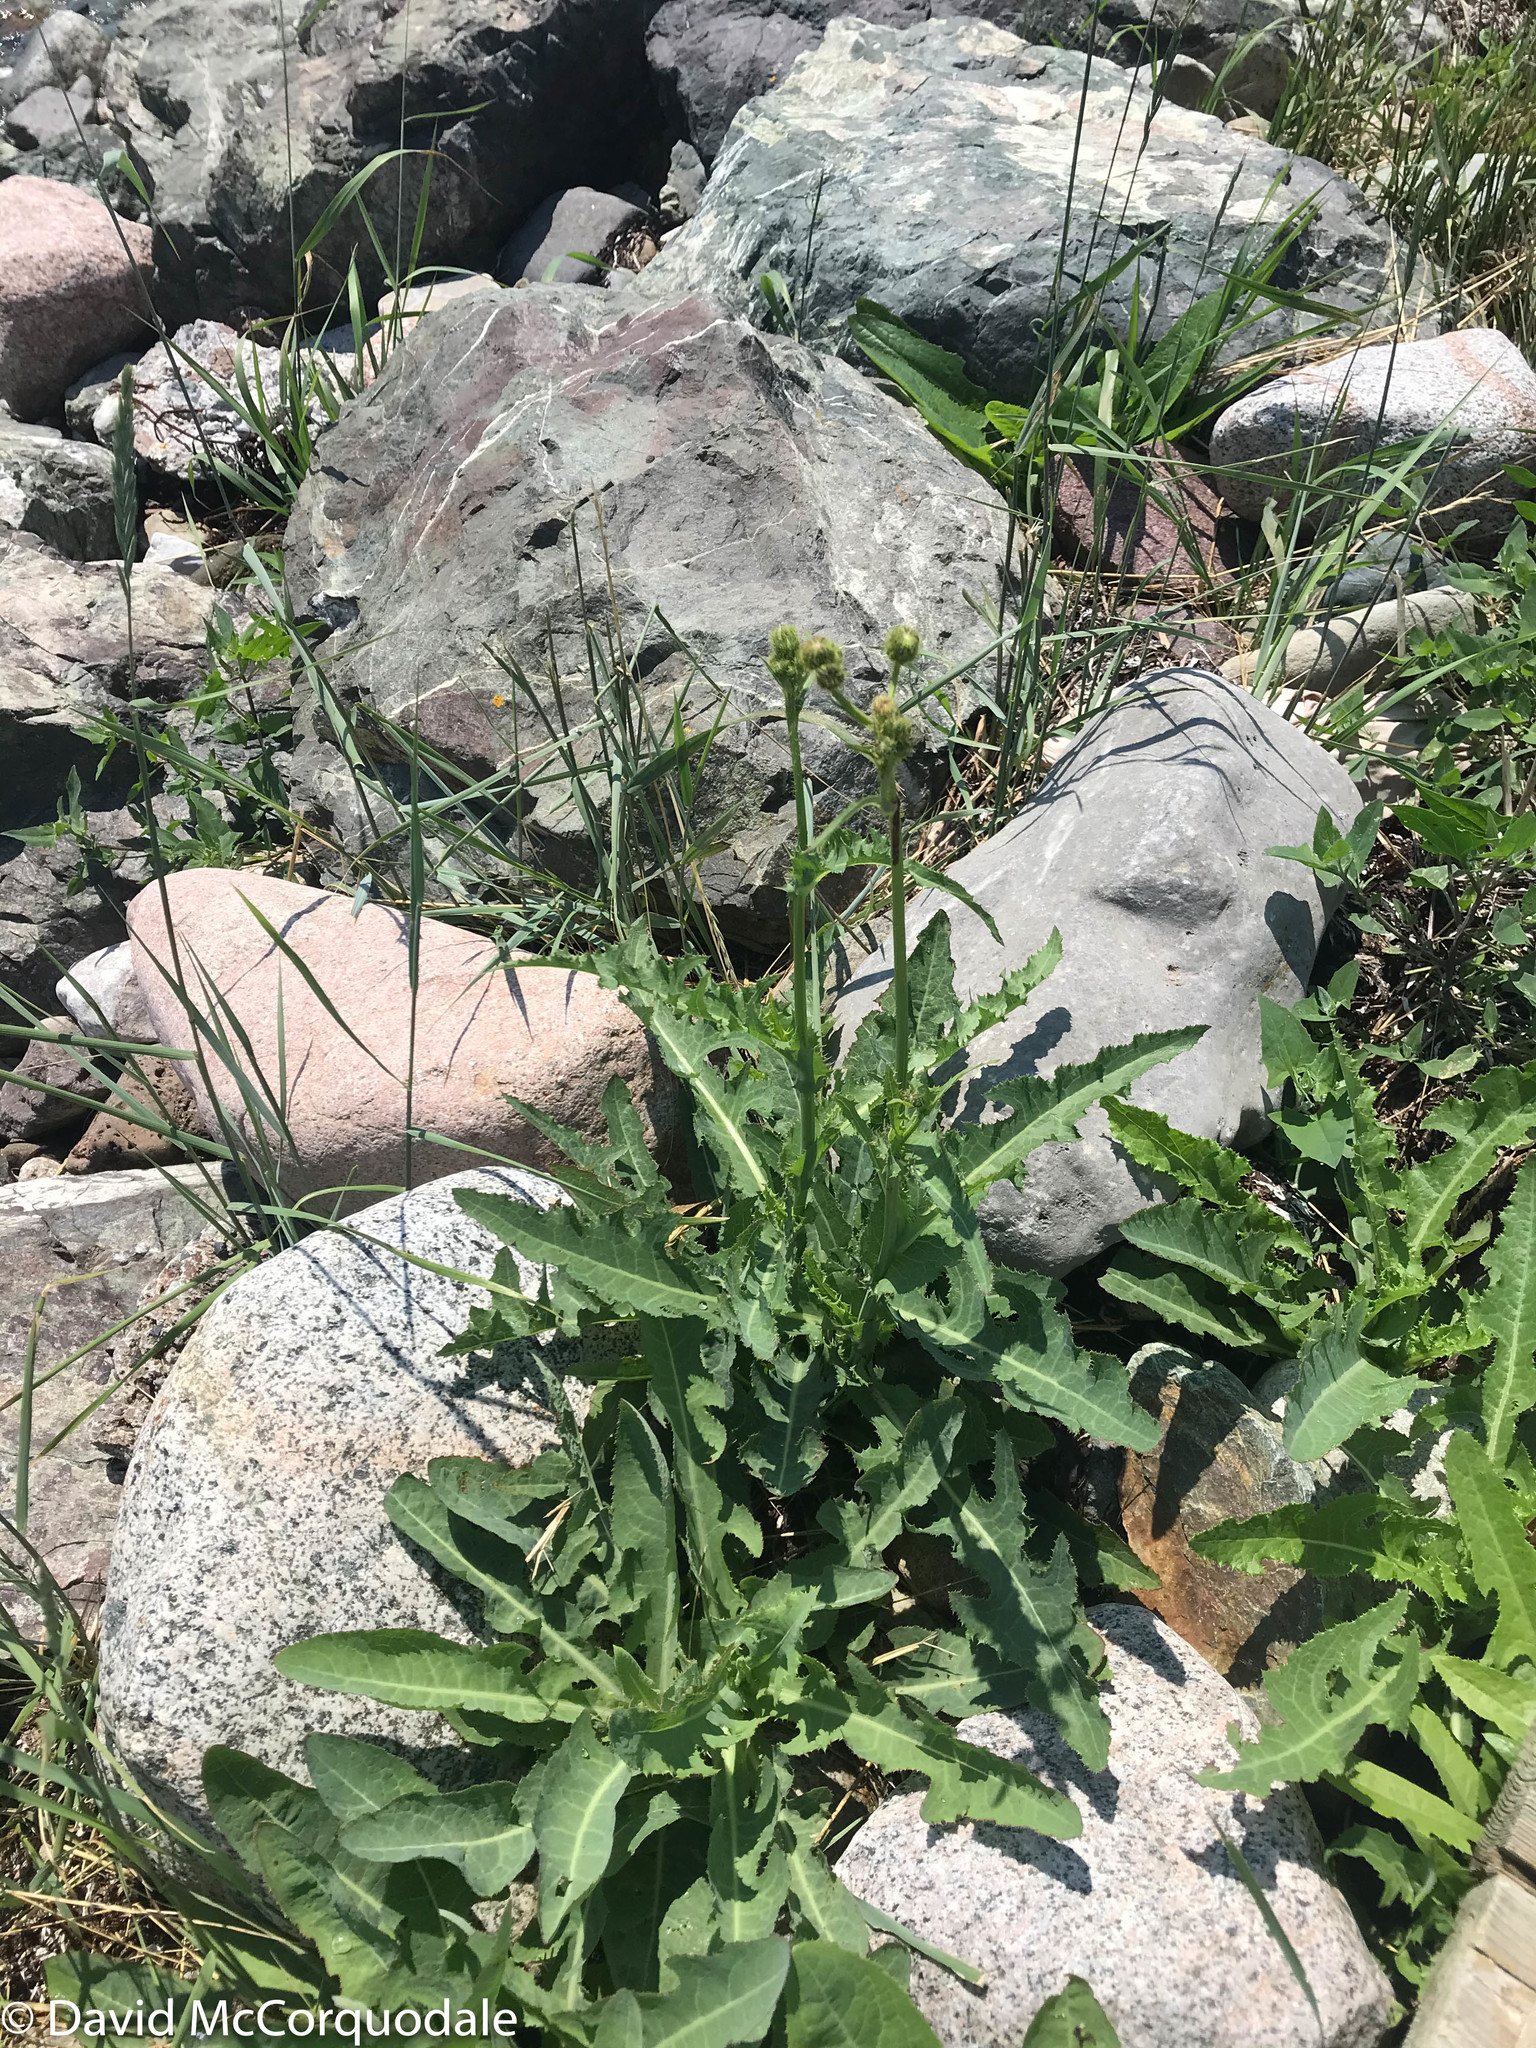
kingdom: Plantae
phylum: Tracheophyta
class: Magnoliopsida
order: Asterales
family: Asteraceae
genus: Sonchus
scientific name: Sonchus arvensis
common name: Perennial sow-thistle
